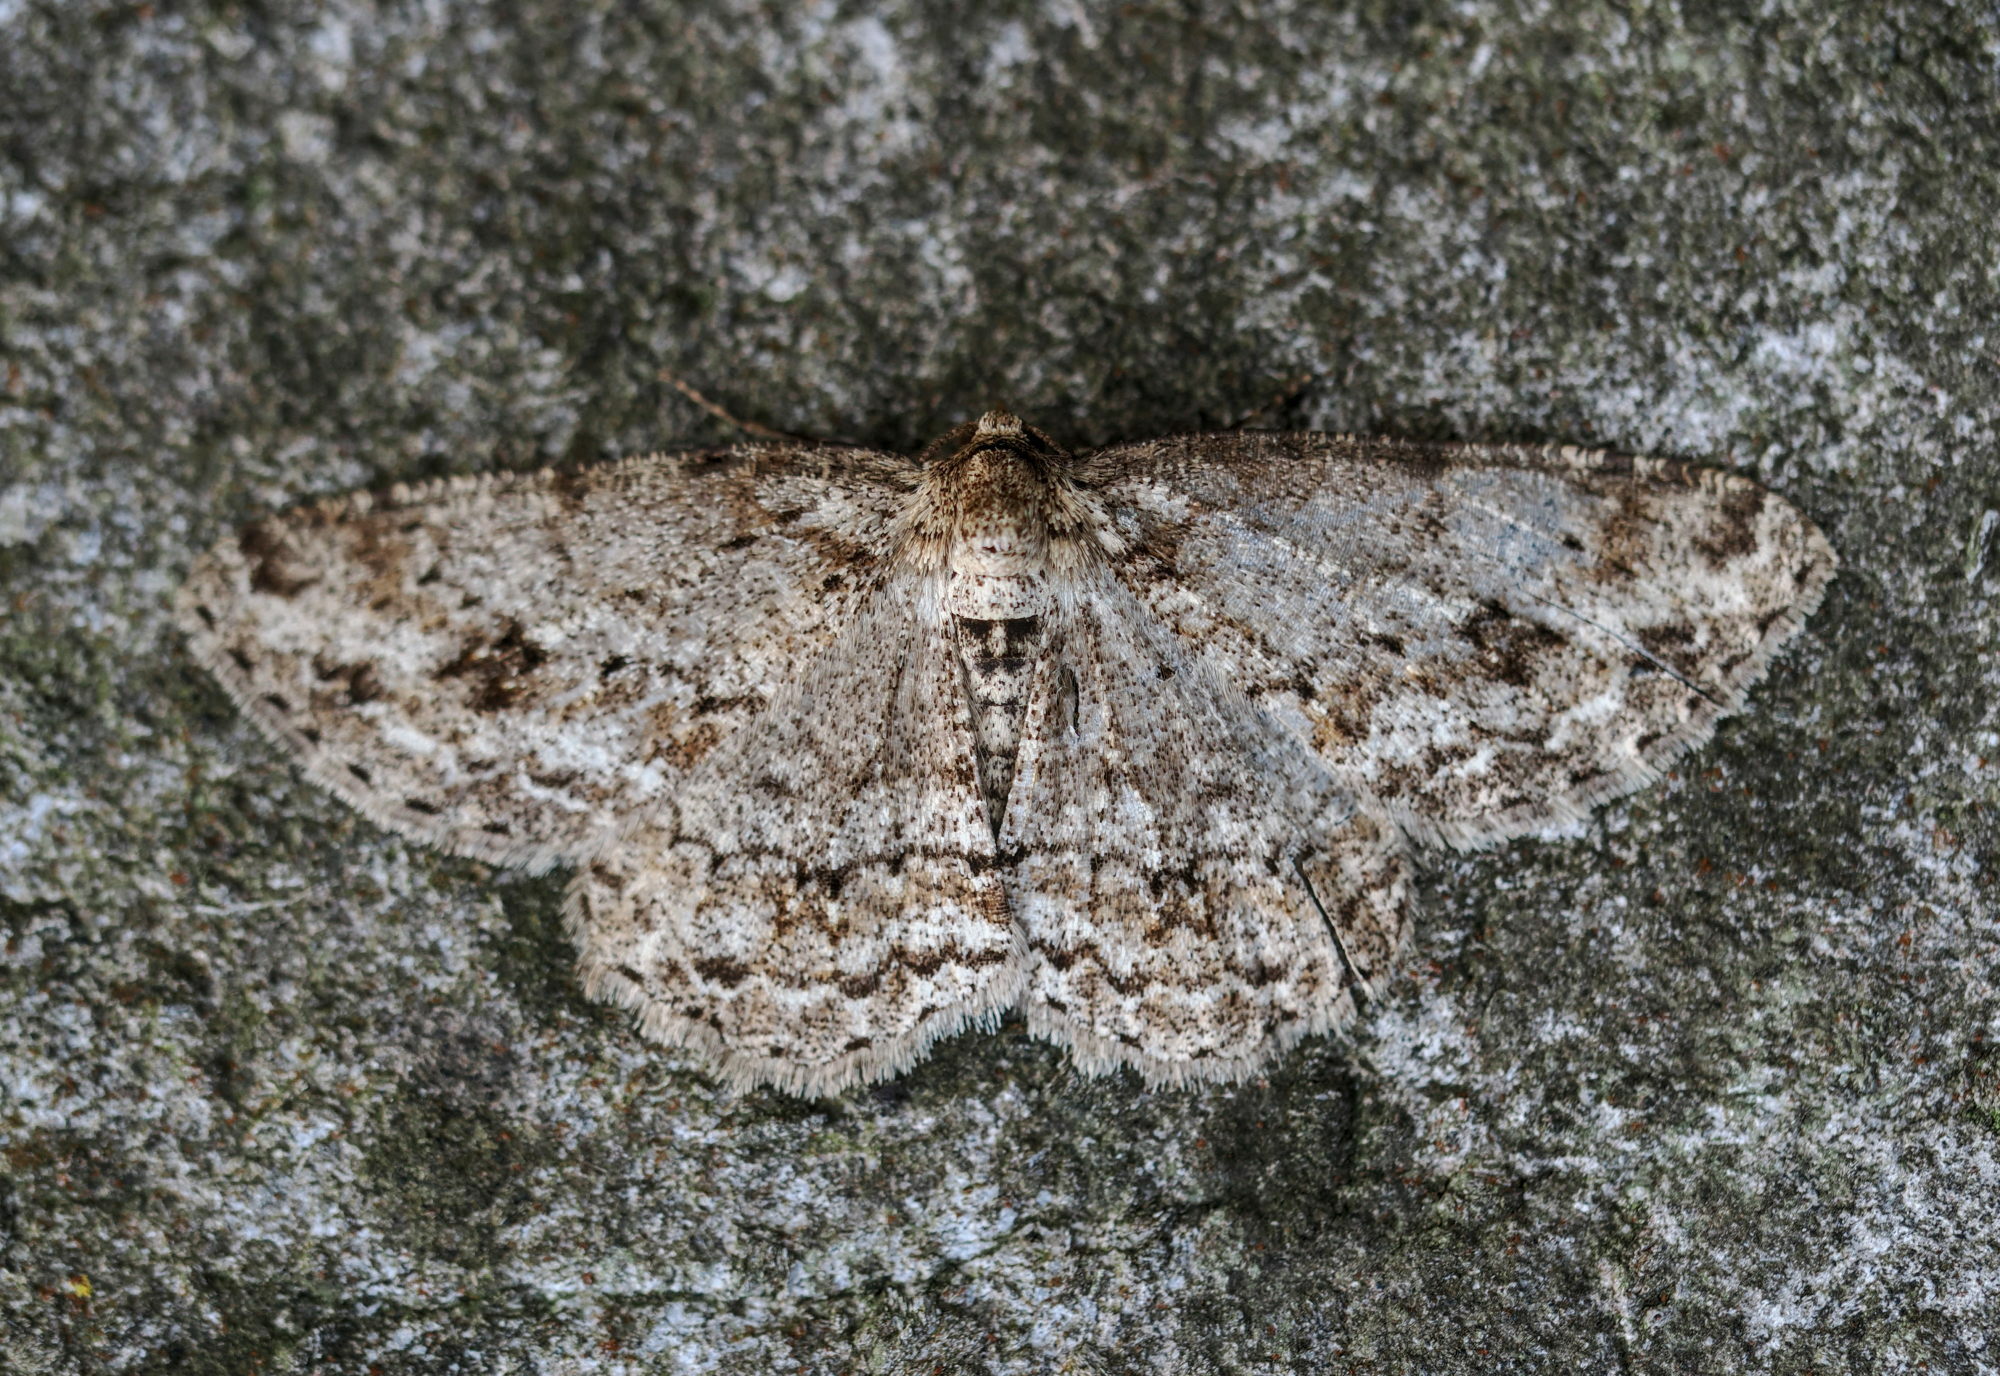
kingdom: Animalia
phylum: Arthropoda
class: Insecta
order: Lepidoptera
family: Geometridae
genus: Ectropis
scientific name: Ectropis crepuscularia
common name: Engrailed
